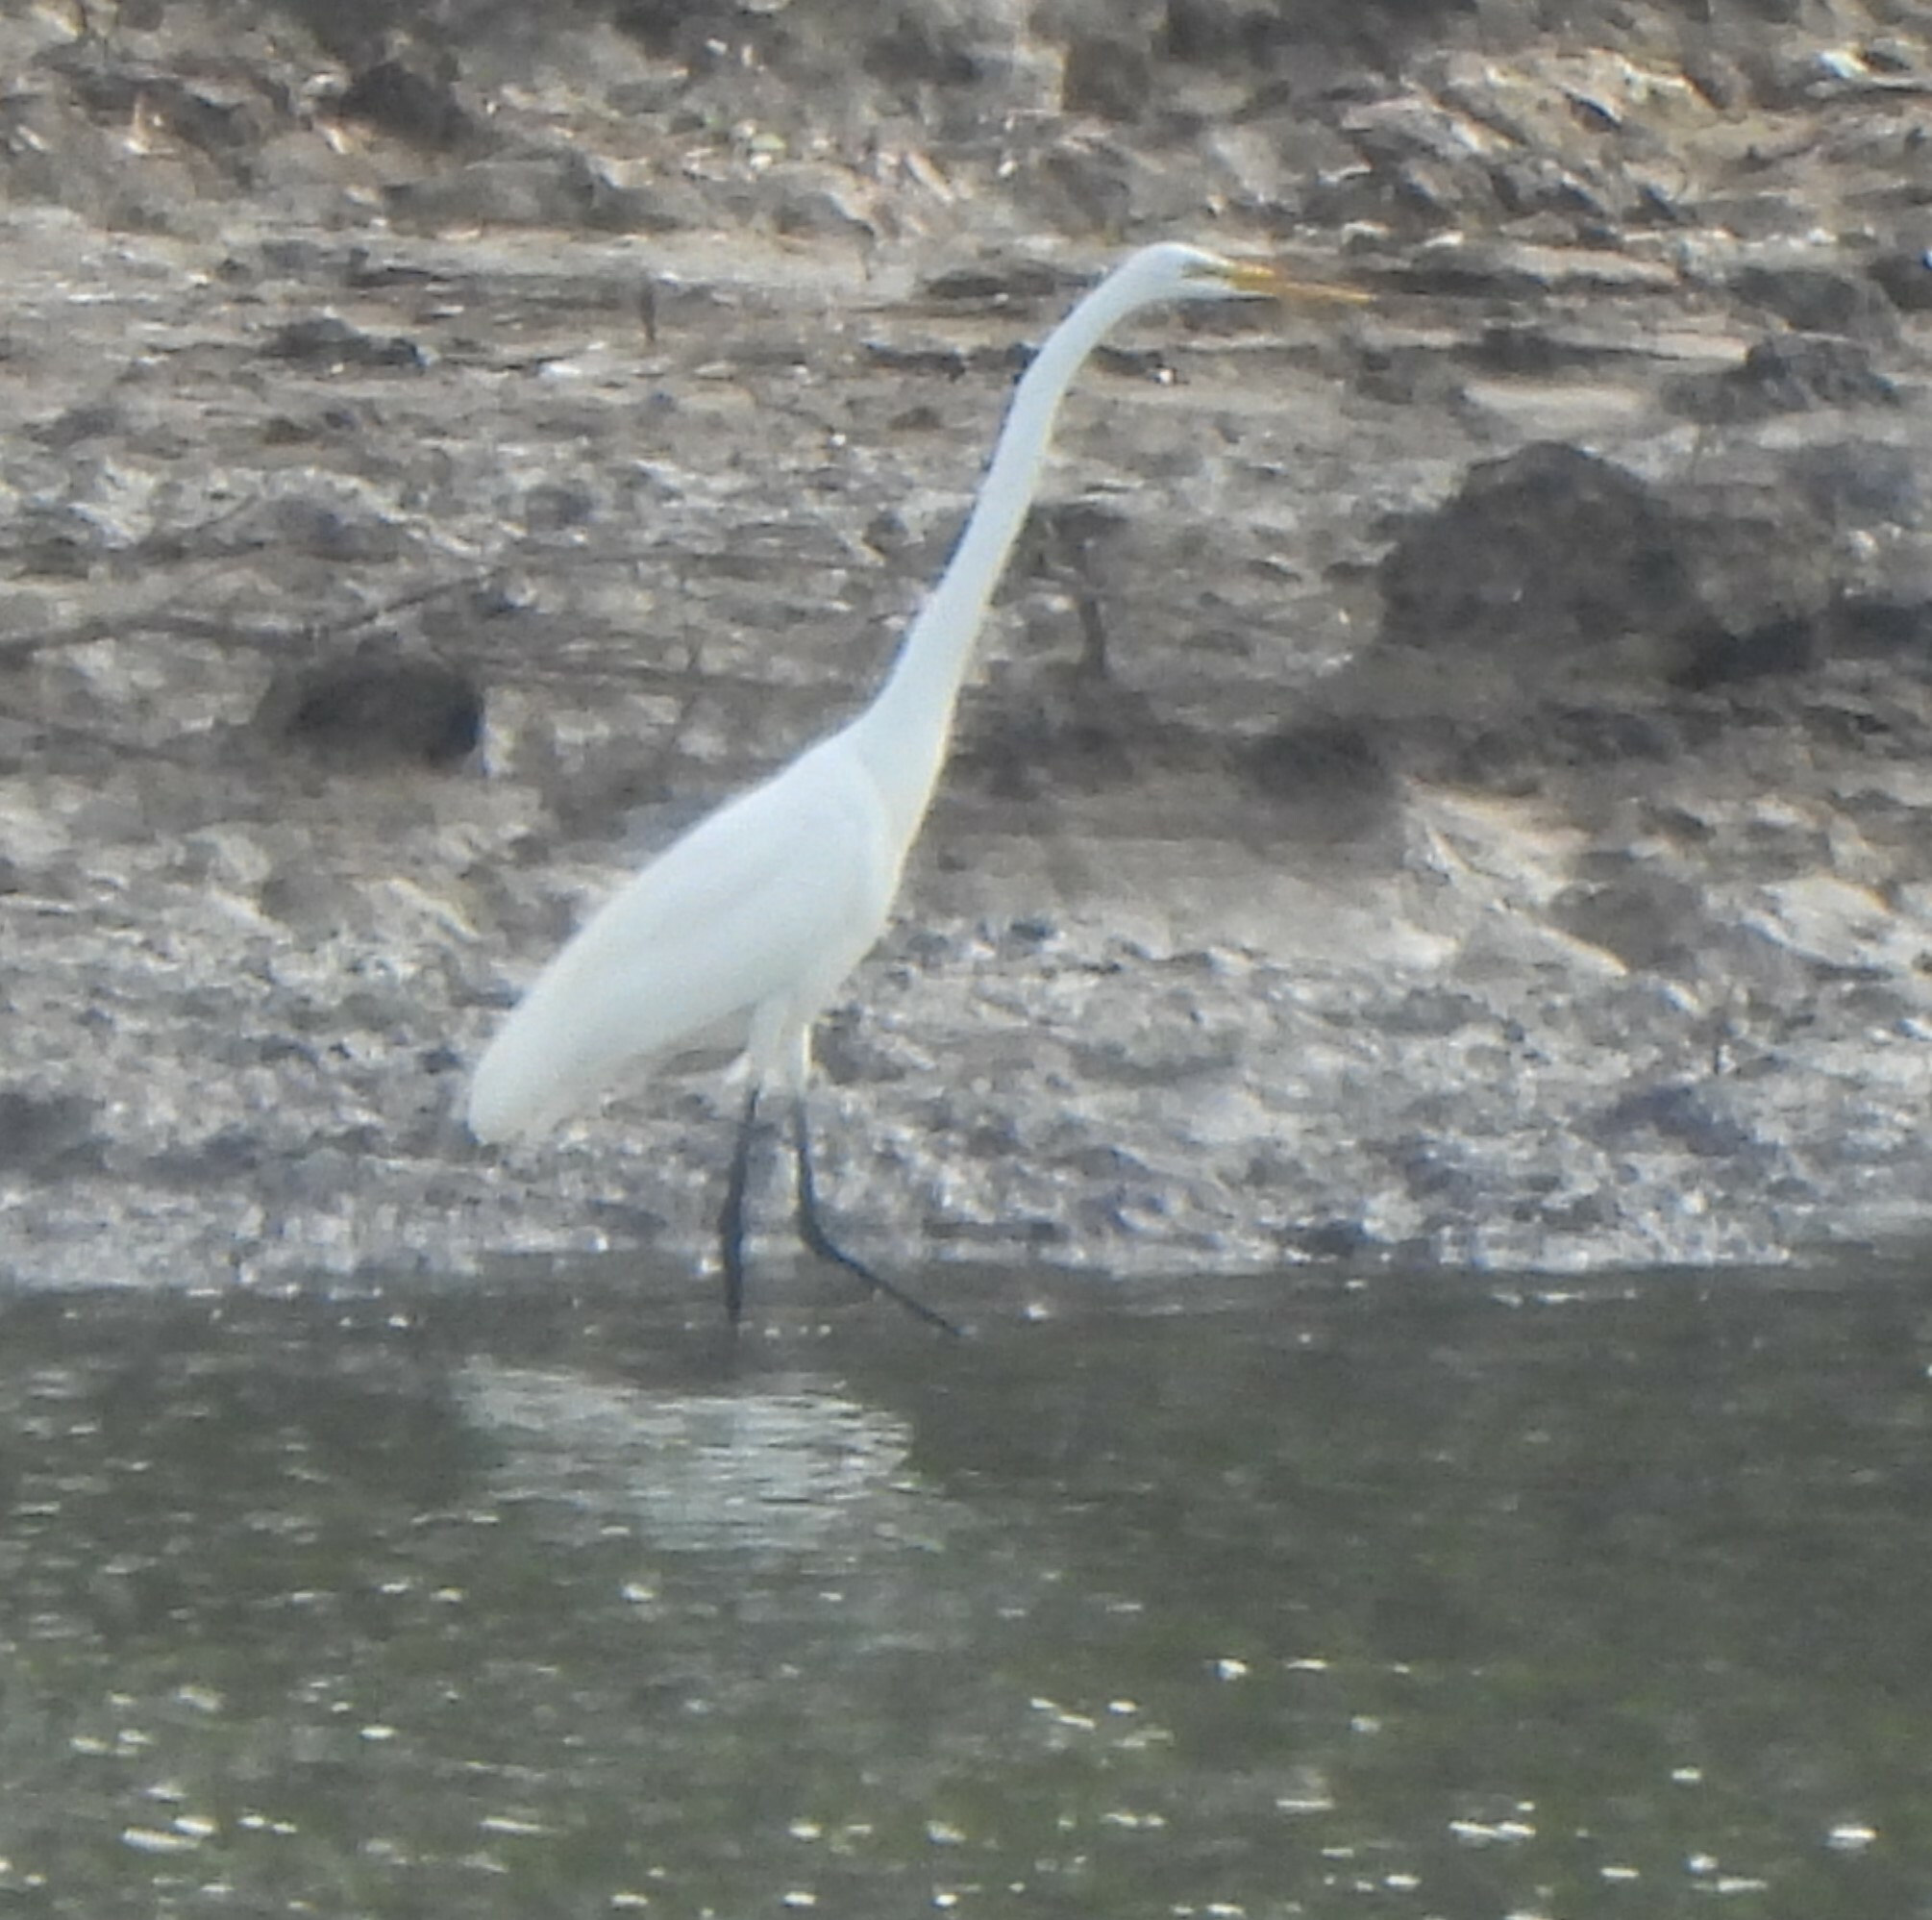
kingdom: Animalia
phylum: Chordata
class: Aves
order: Pelecaniformes
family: Ardeidae
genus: Ardea
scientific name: Ardea alba
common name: Great egret
